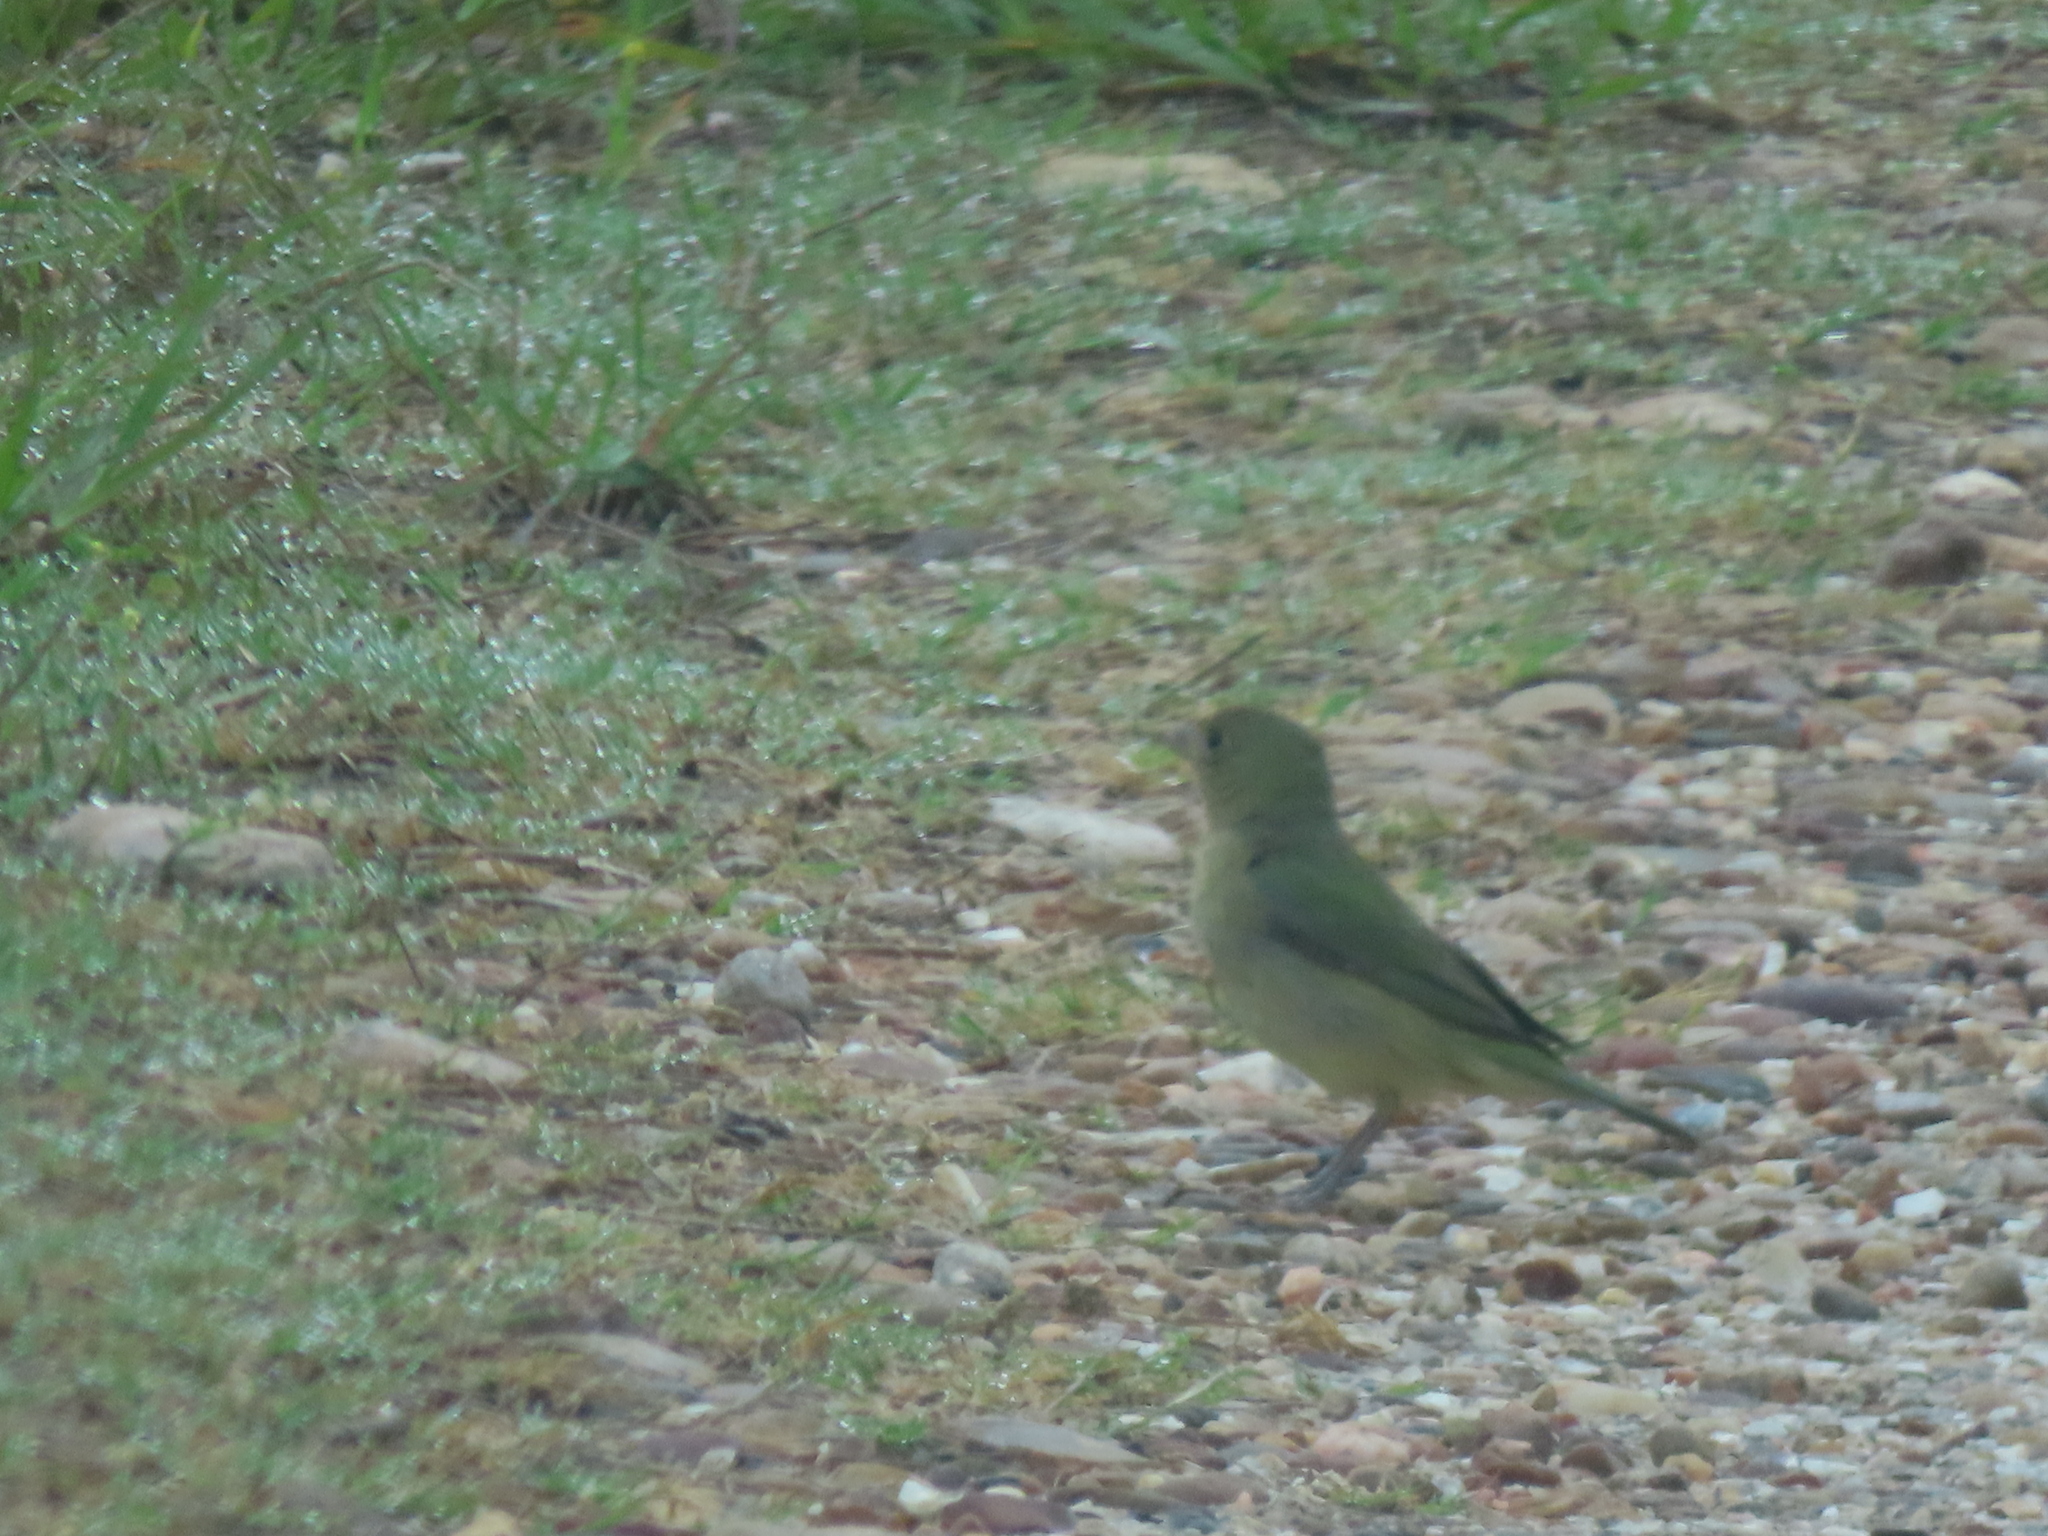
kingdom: Animalia
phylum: Chordata
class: Aves
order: Passeriformes
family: Cardinalidae
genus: Passerina
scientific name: Passerina ciris
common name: Painted bunting
